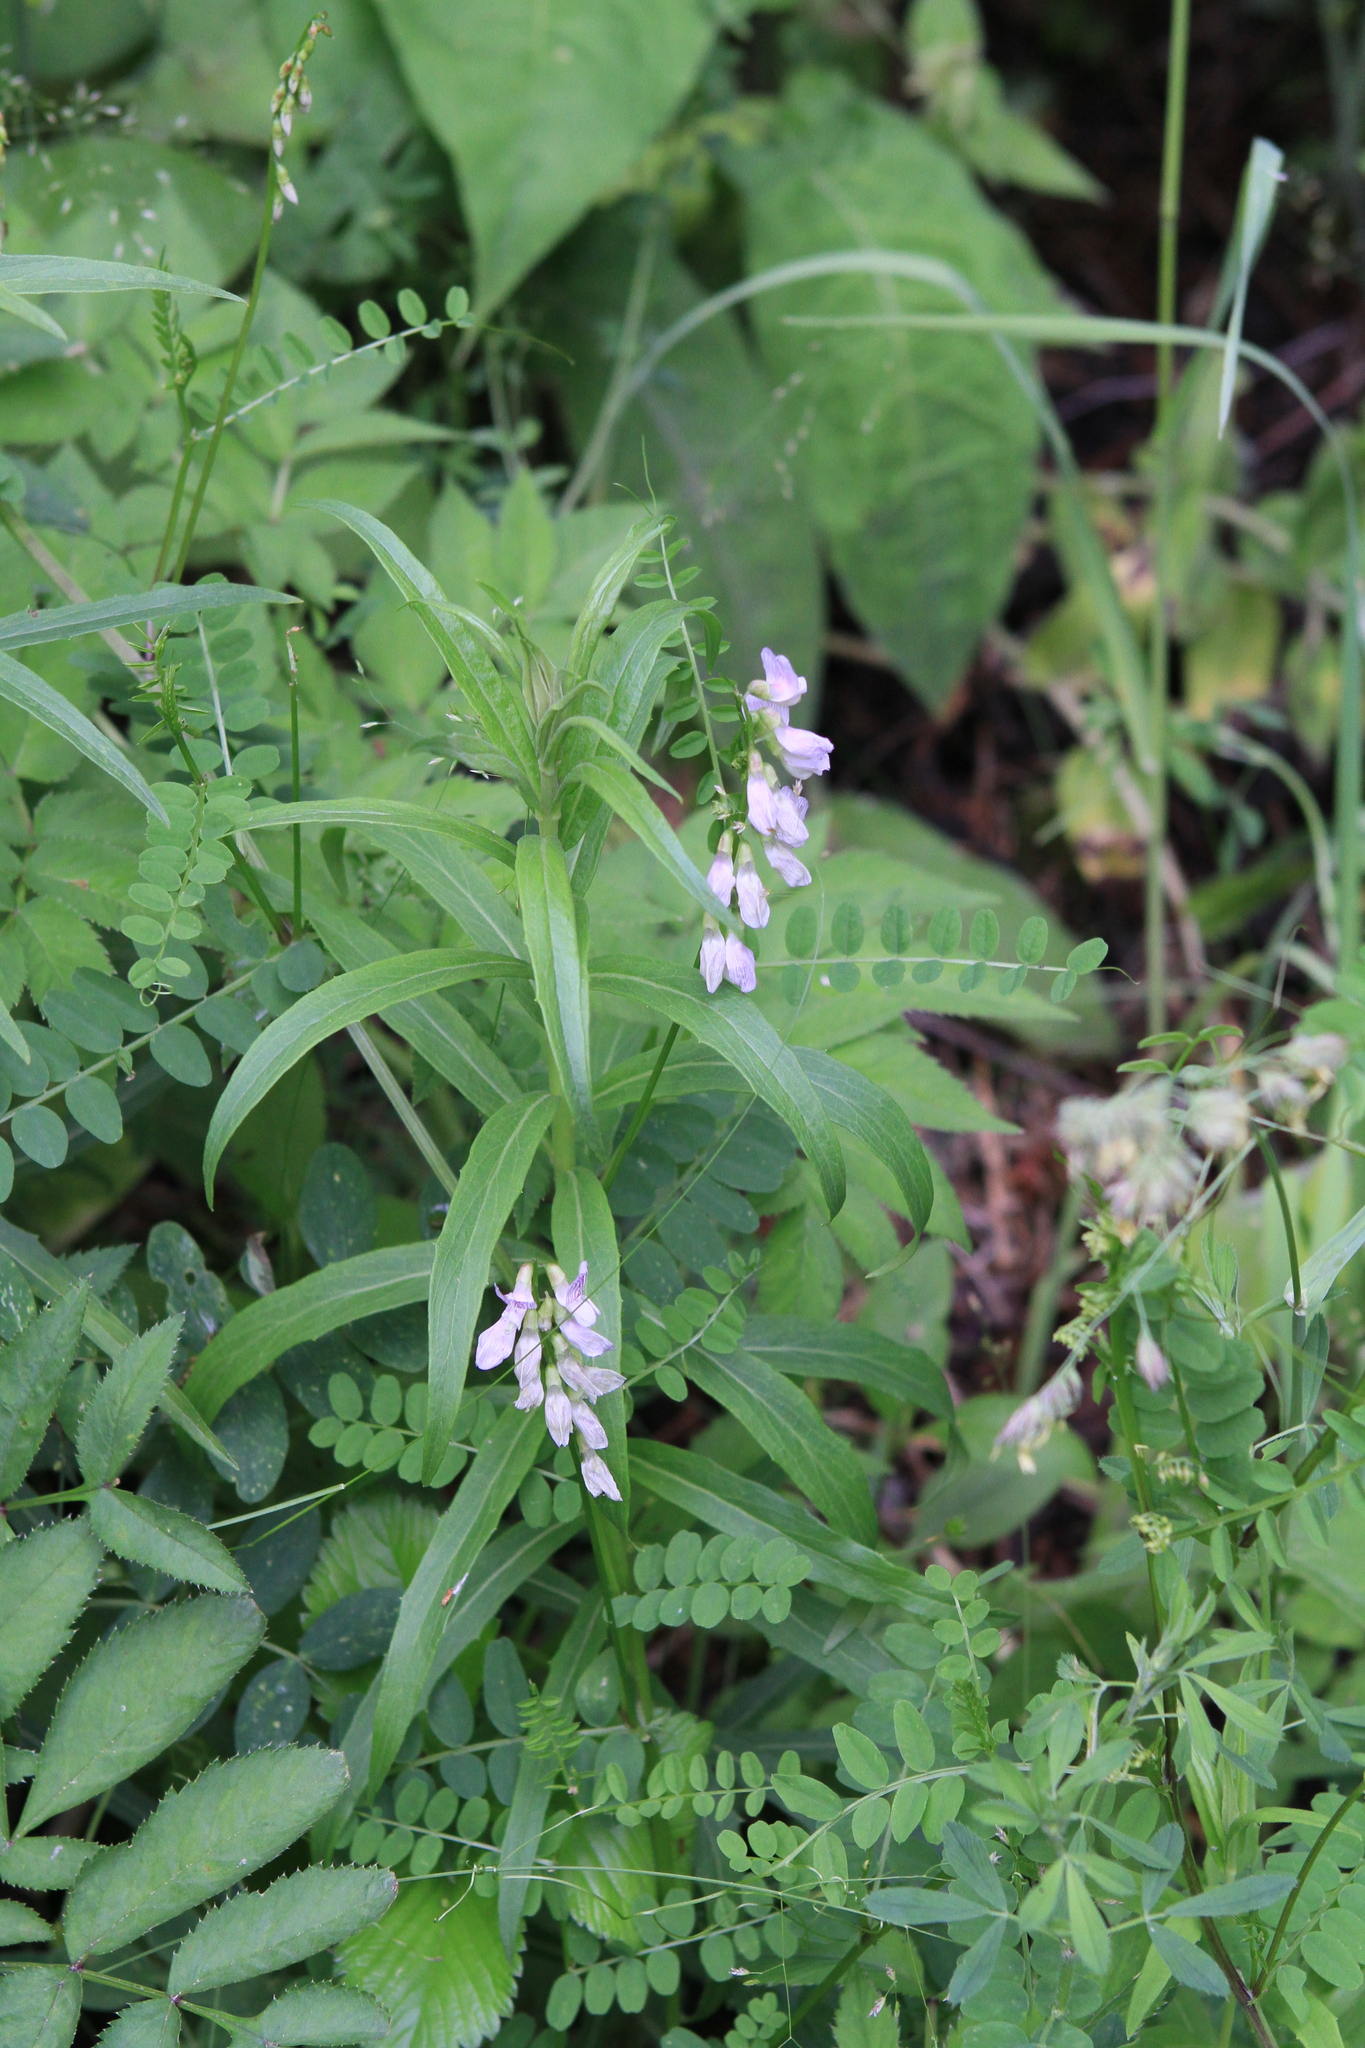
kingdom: Plantae
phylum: Tracheophyta
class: Magnoliopsida
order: Fabales
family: Fabaceae
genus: Vicia
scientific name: Vicia sylvatica
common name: Wood vetch
